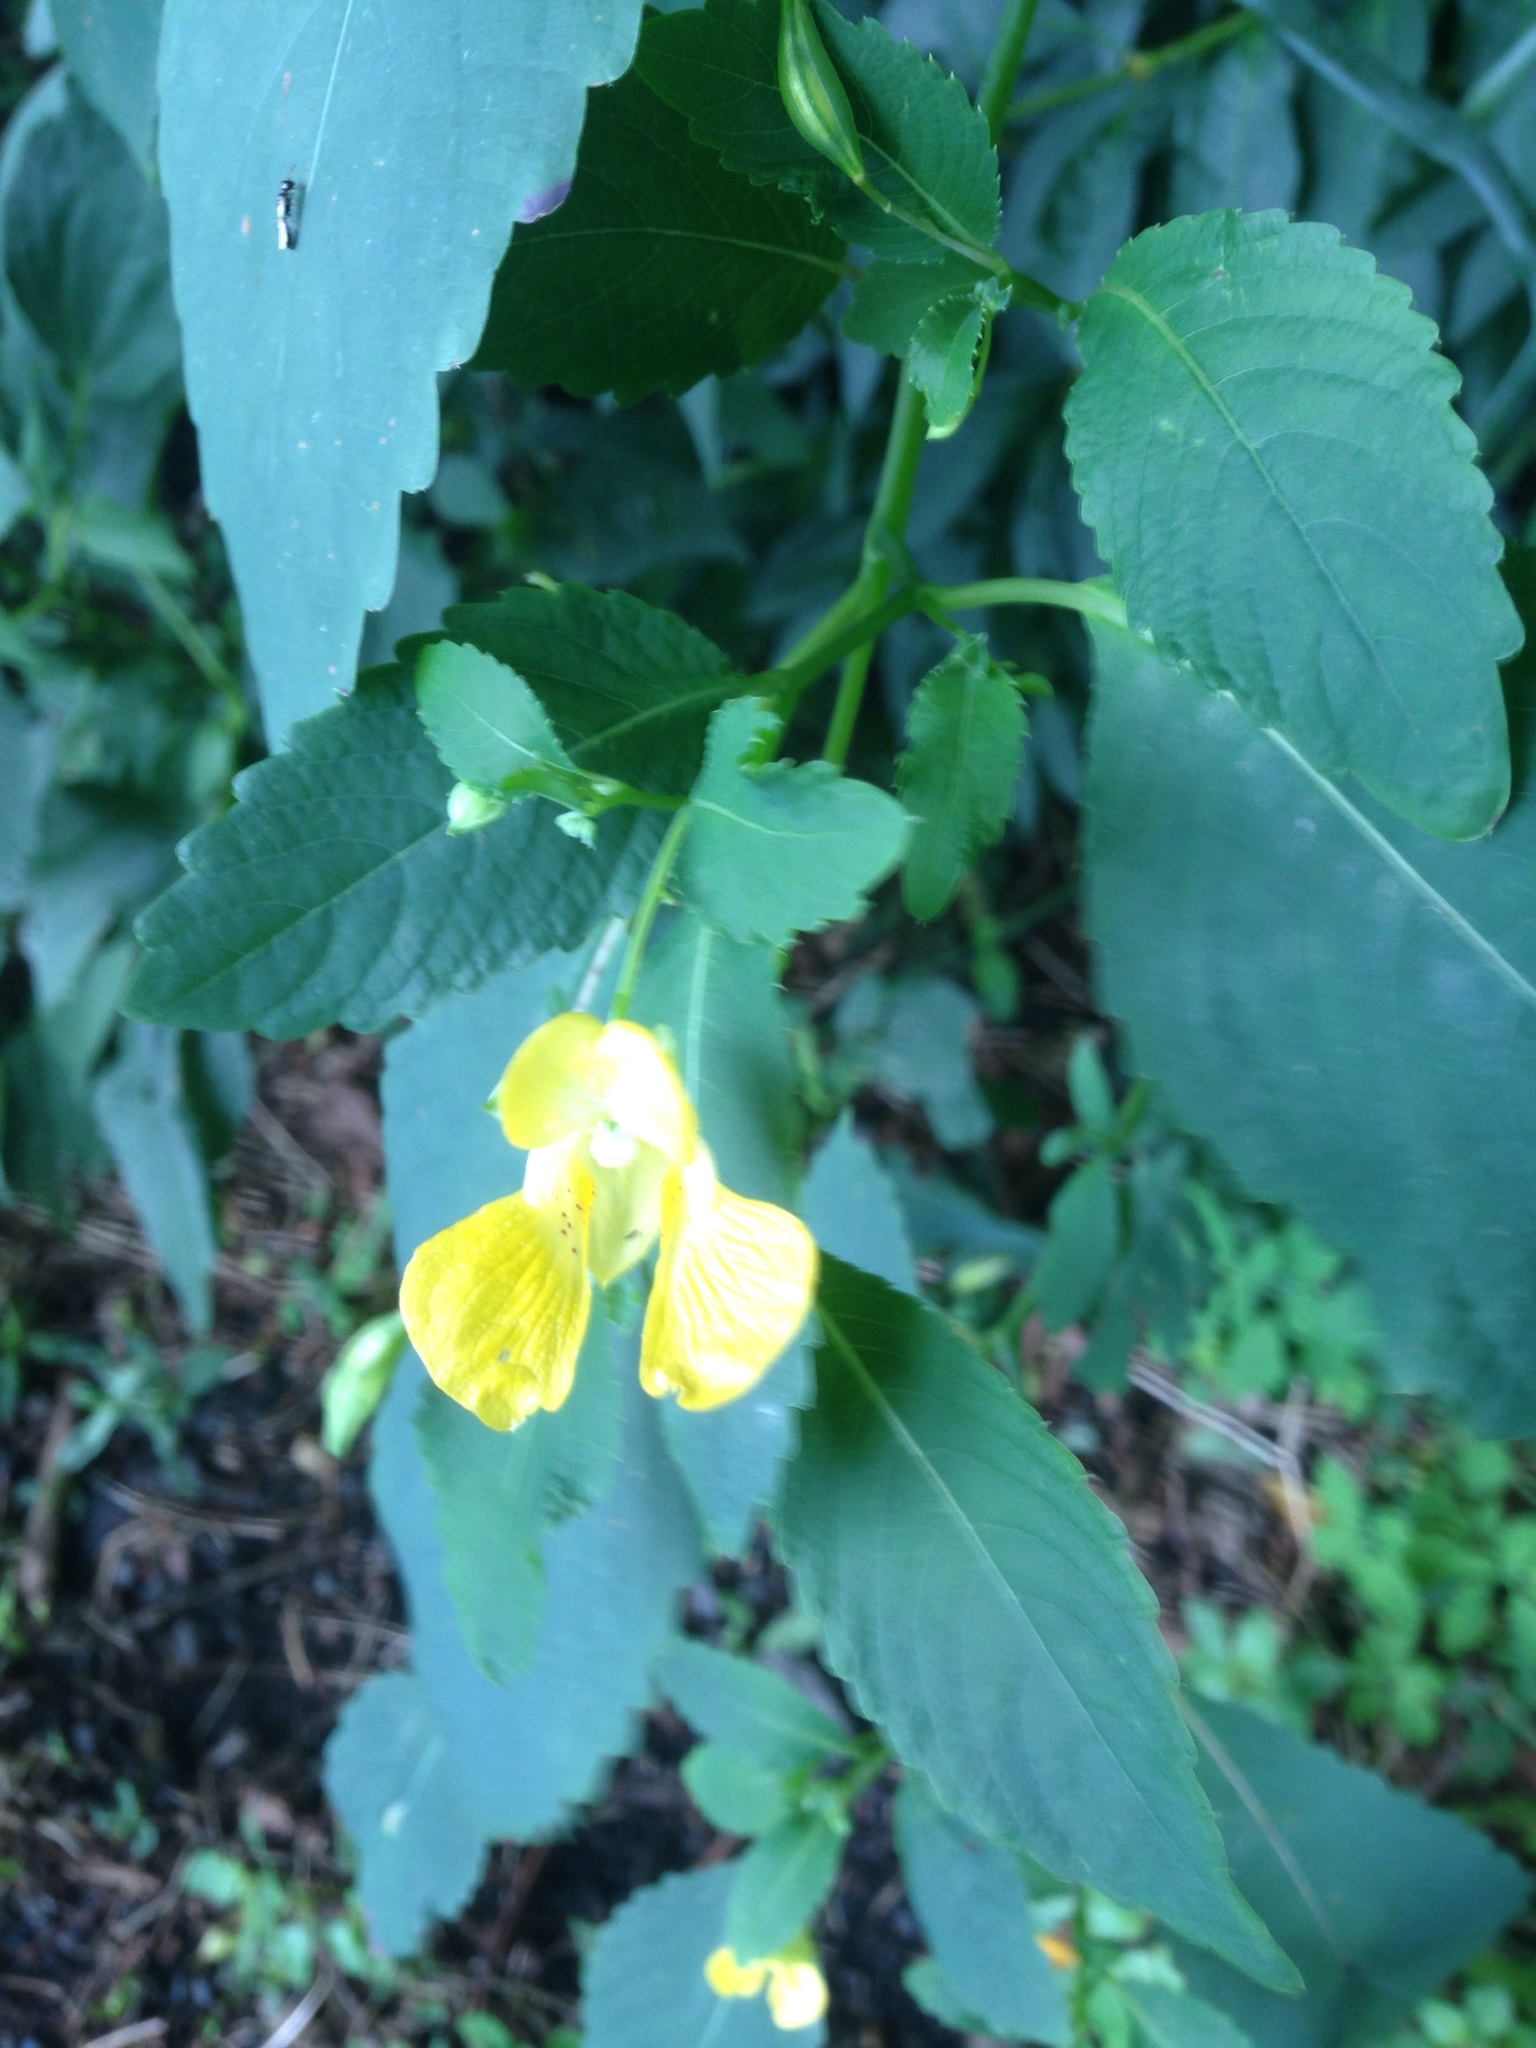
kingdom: Plantae
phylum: Tracheophyta
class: Magnoliopsida
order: Ericales
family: Balsaminaceae
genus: Impatiens
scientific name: Impatiens pallida
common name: Pale snapweed
